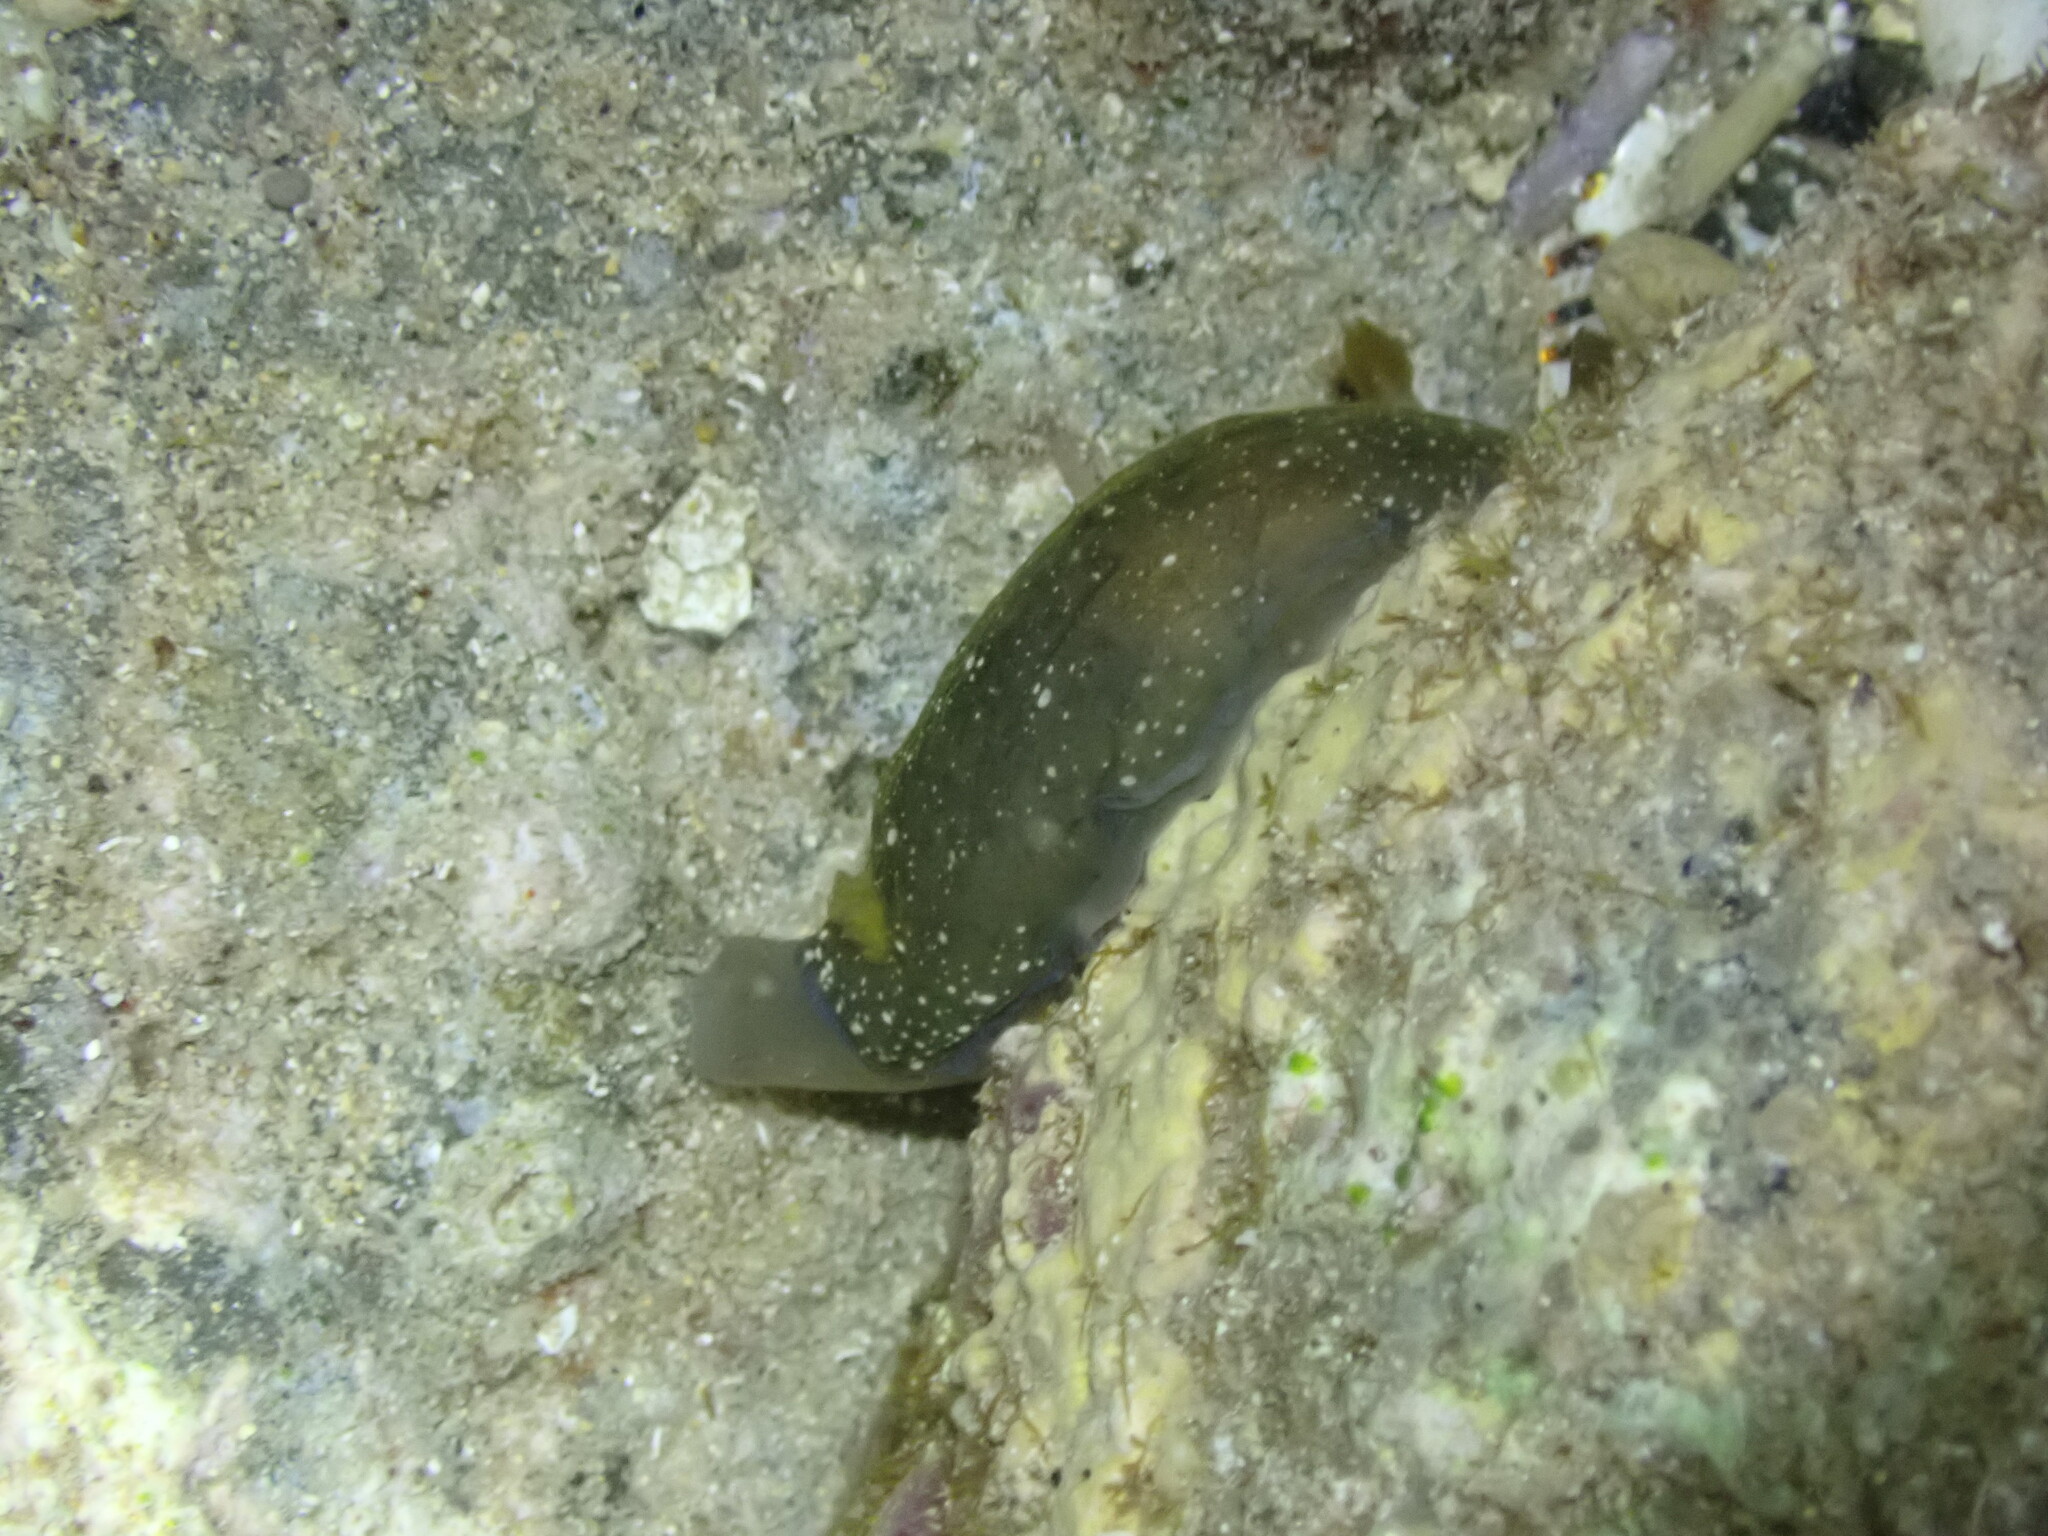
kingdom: Animalia
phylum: Mollusca
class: Gastropoda
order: Nudibranchia
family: Dendrodorididae
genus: Dendrodoris
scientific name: Dendrodoris nigra
